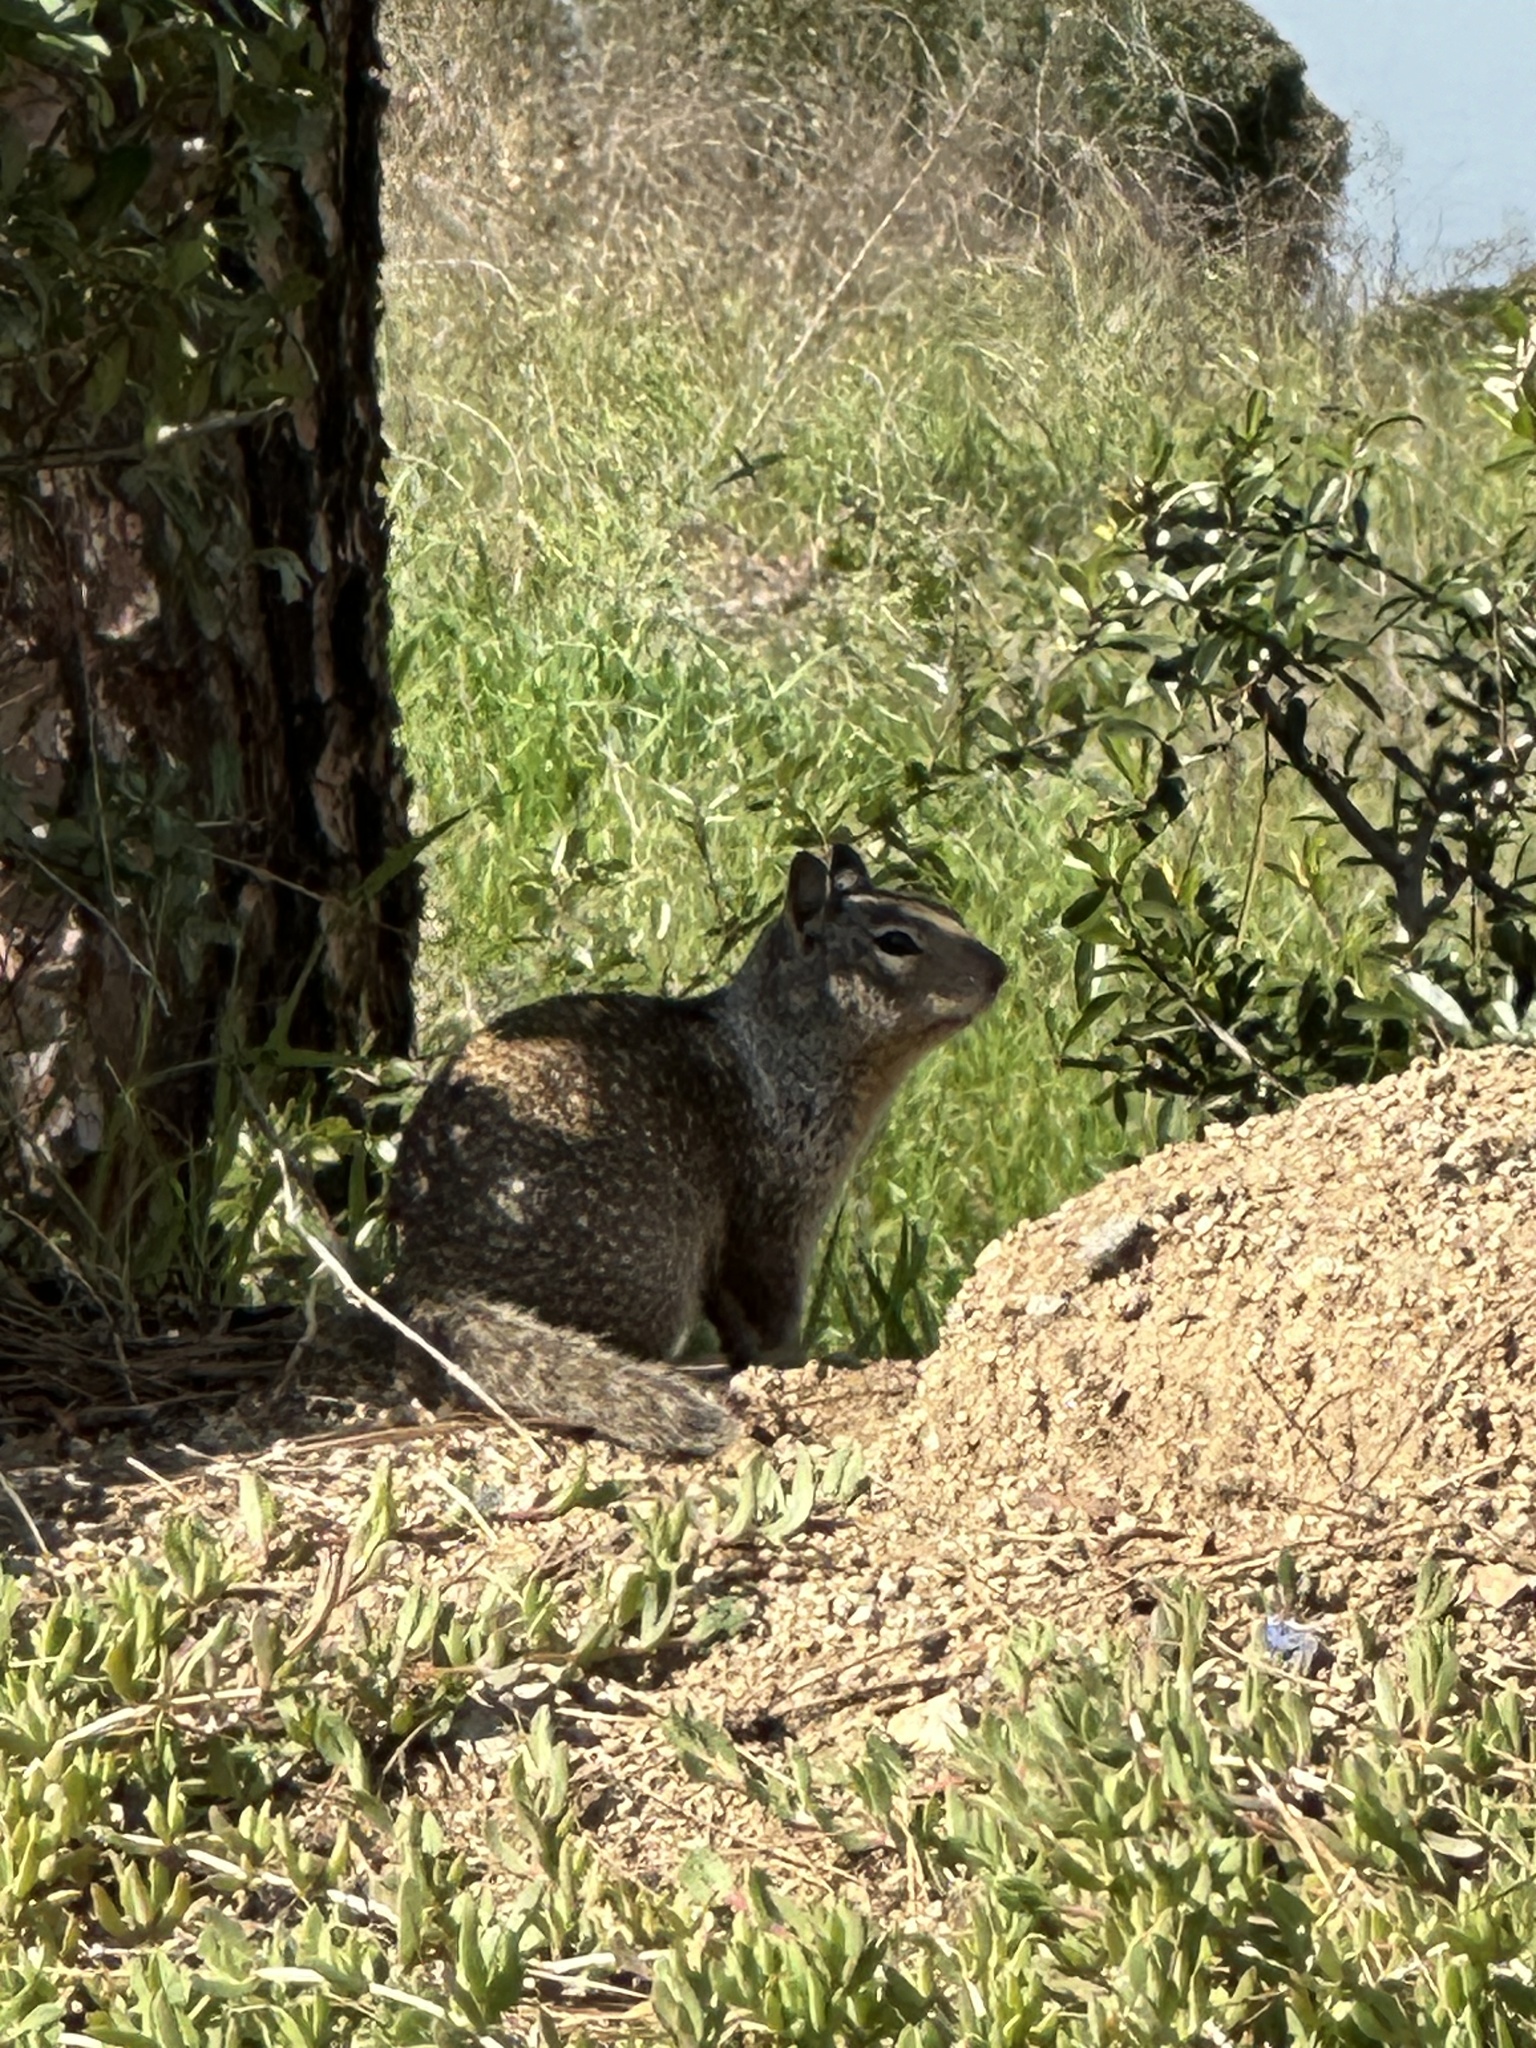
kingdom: Animalia
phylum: Chordata
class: Mammalia
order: Rodentia
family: Sciuridae
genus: Otospermophilus
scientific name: Otospermophilus beecheyi
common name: California ground squirrel
